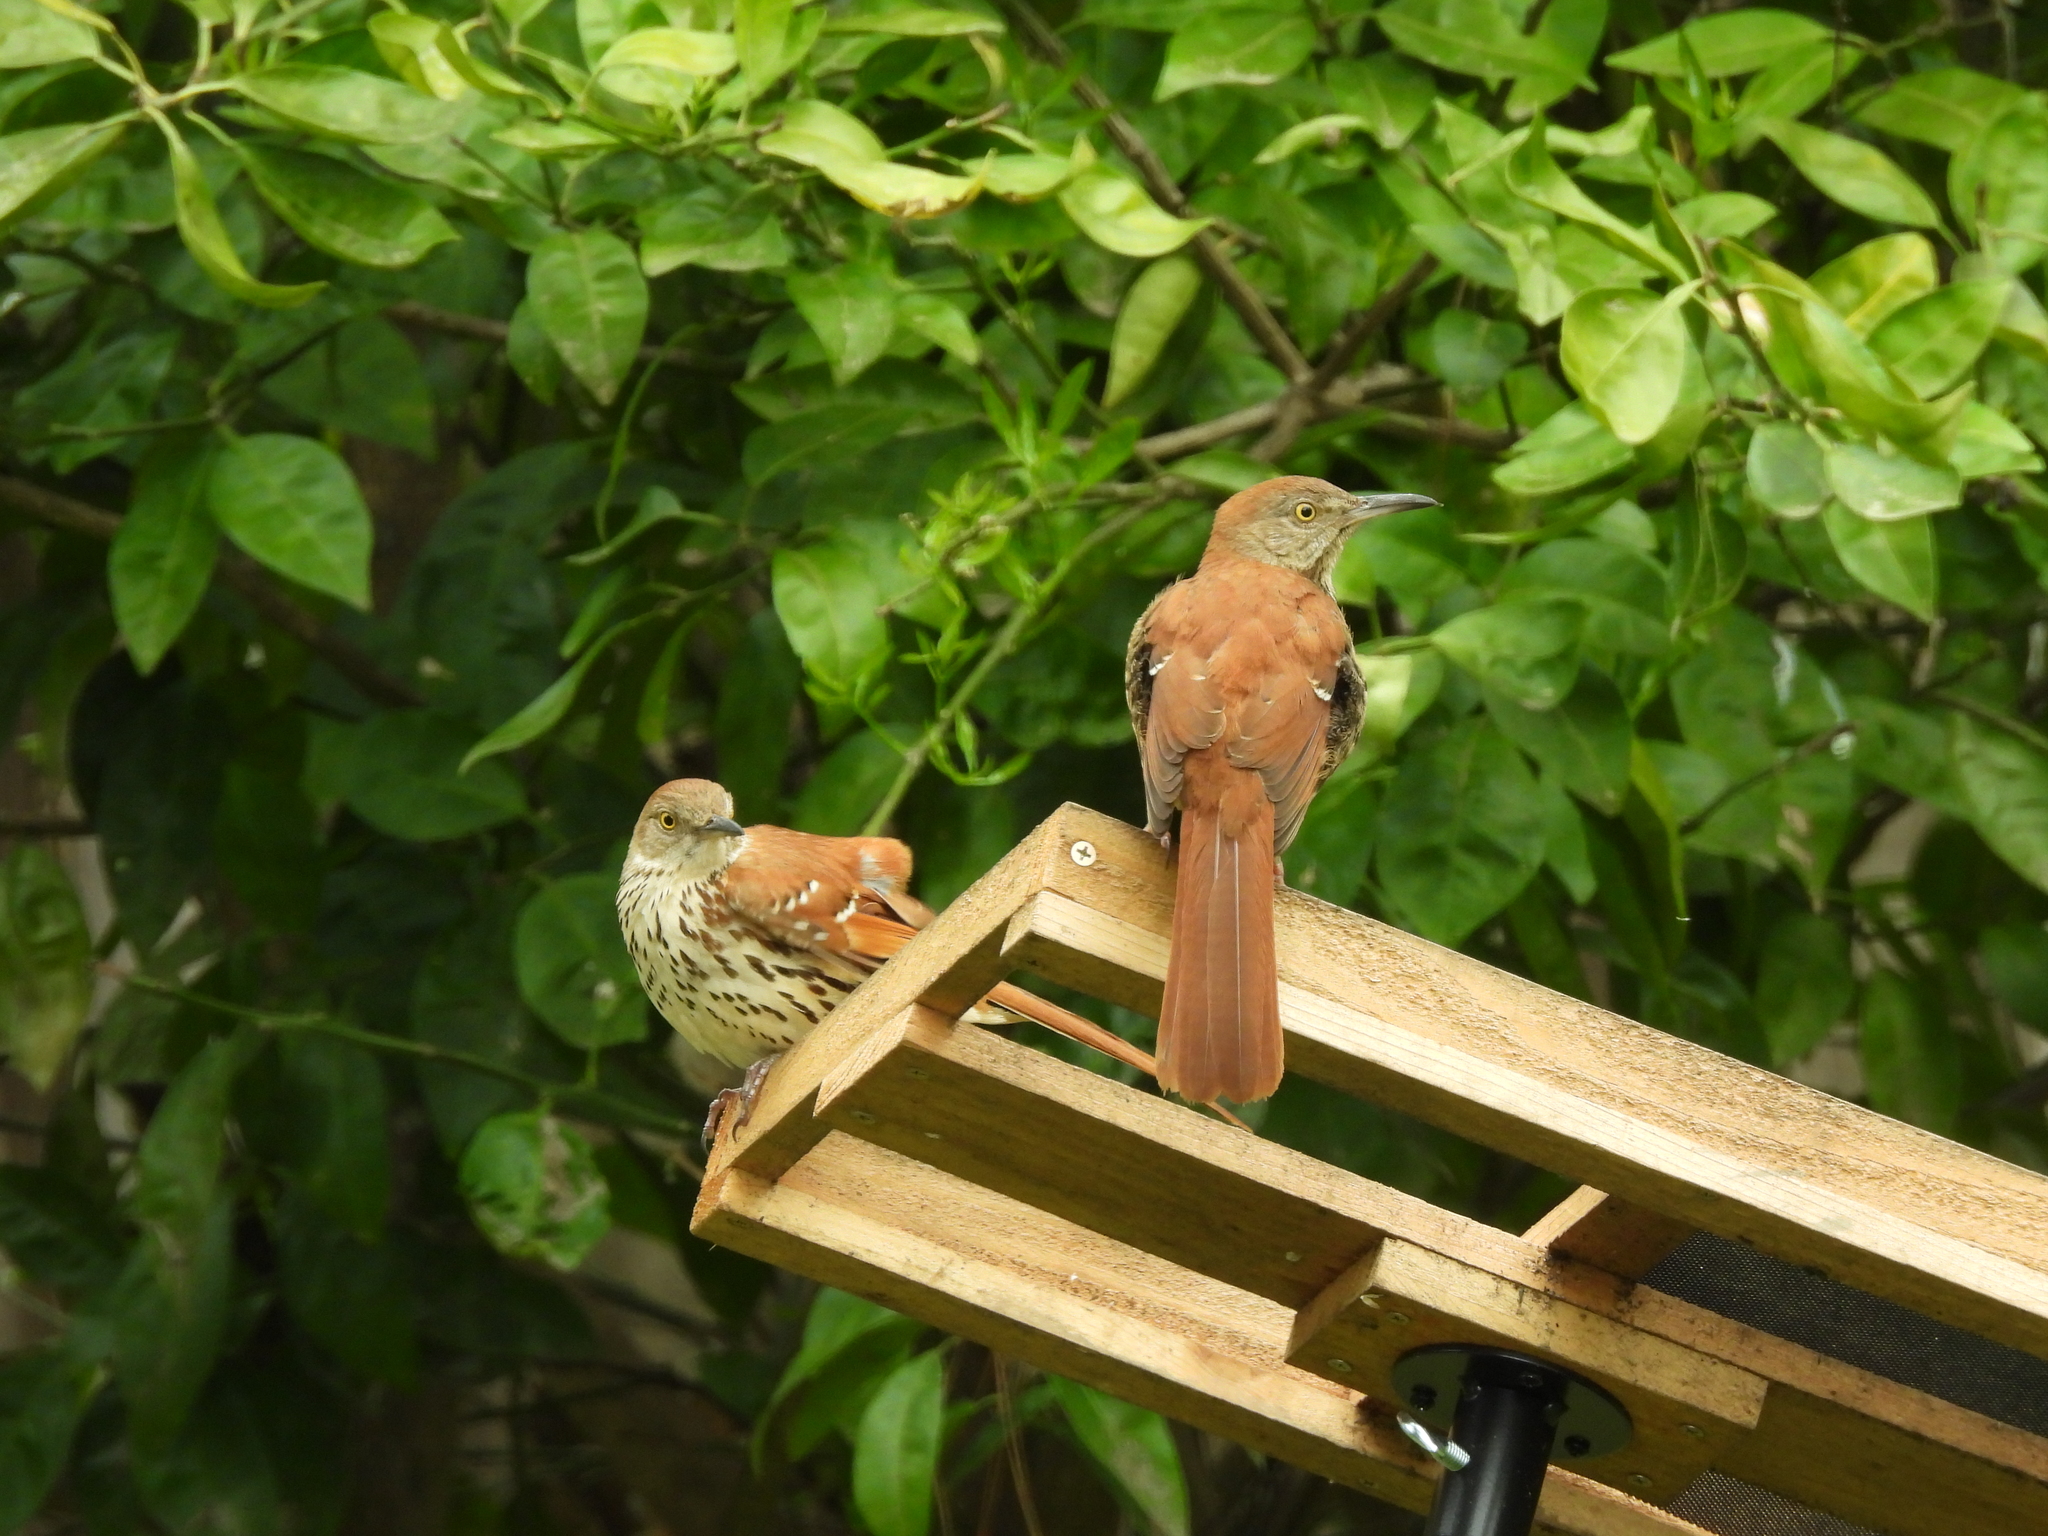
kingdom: Animalia
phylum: Chordata
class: Aves
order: Passeriformes
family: Mimidae
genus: Toxostoma
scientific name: Toxostoma rufum
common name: Brown thrasher
